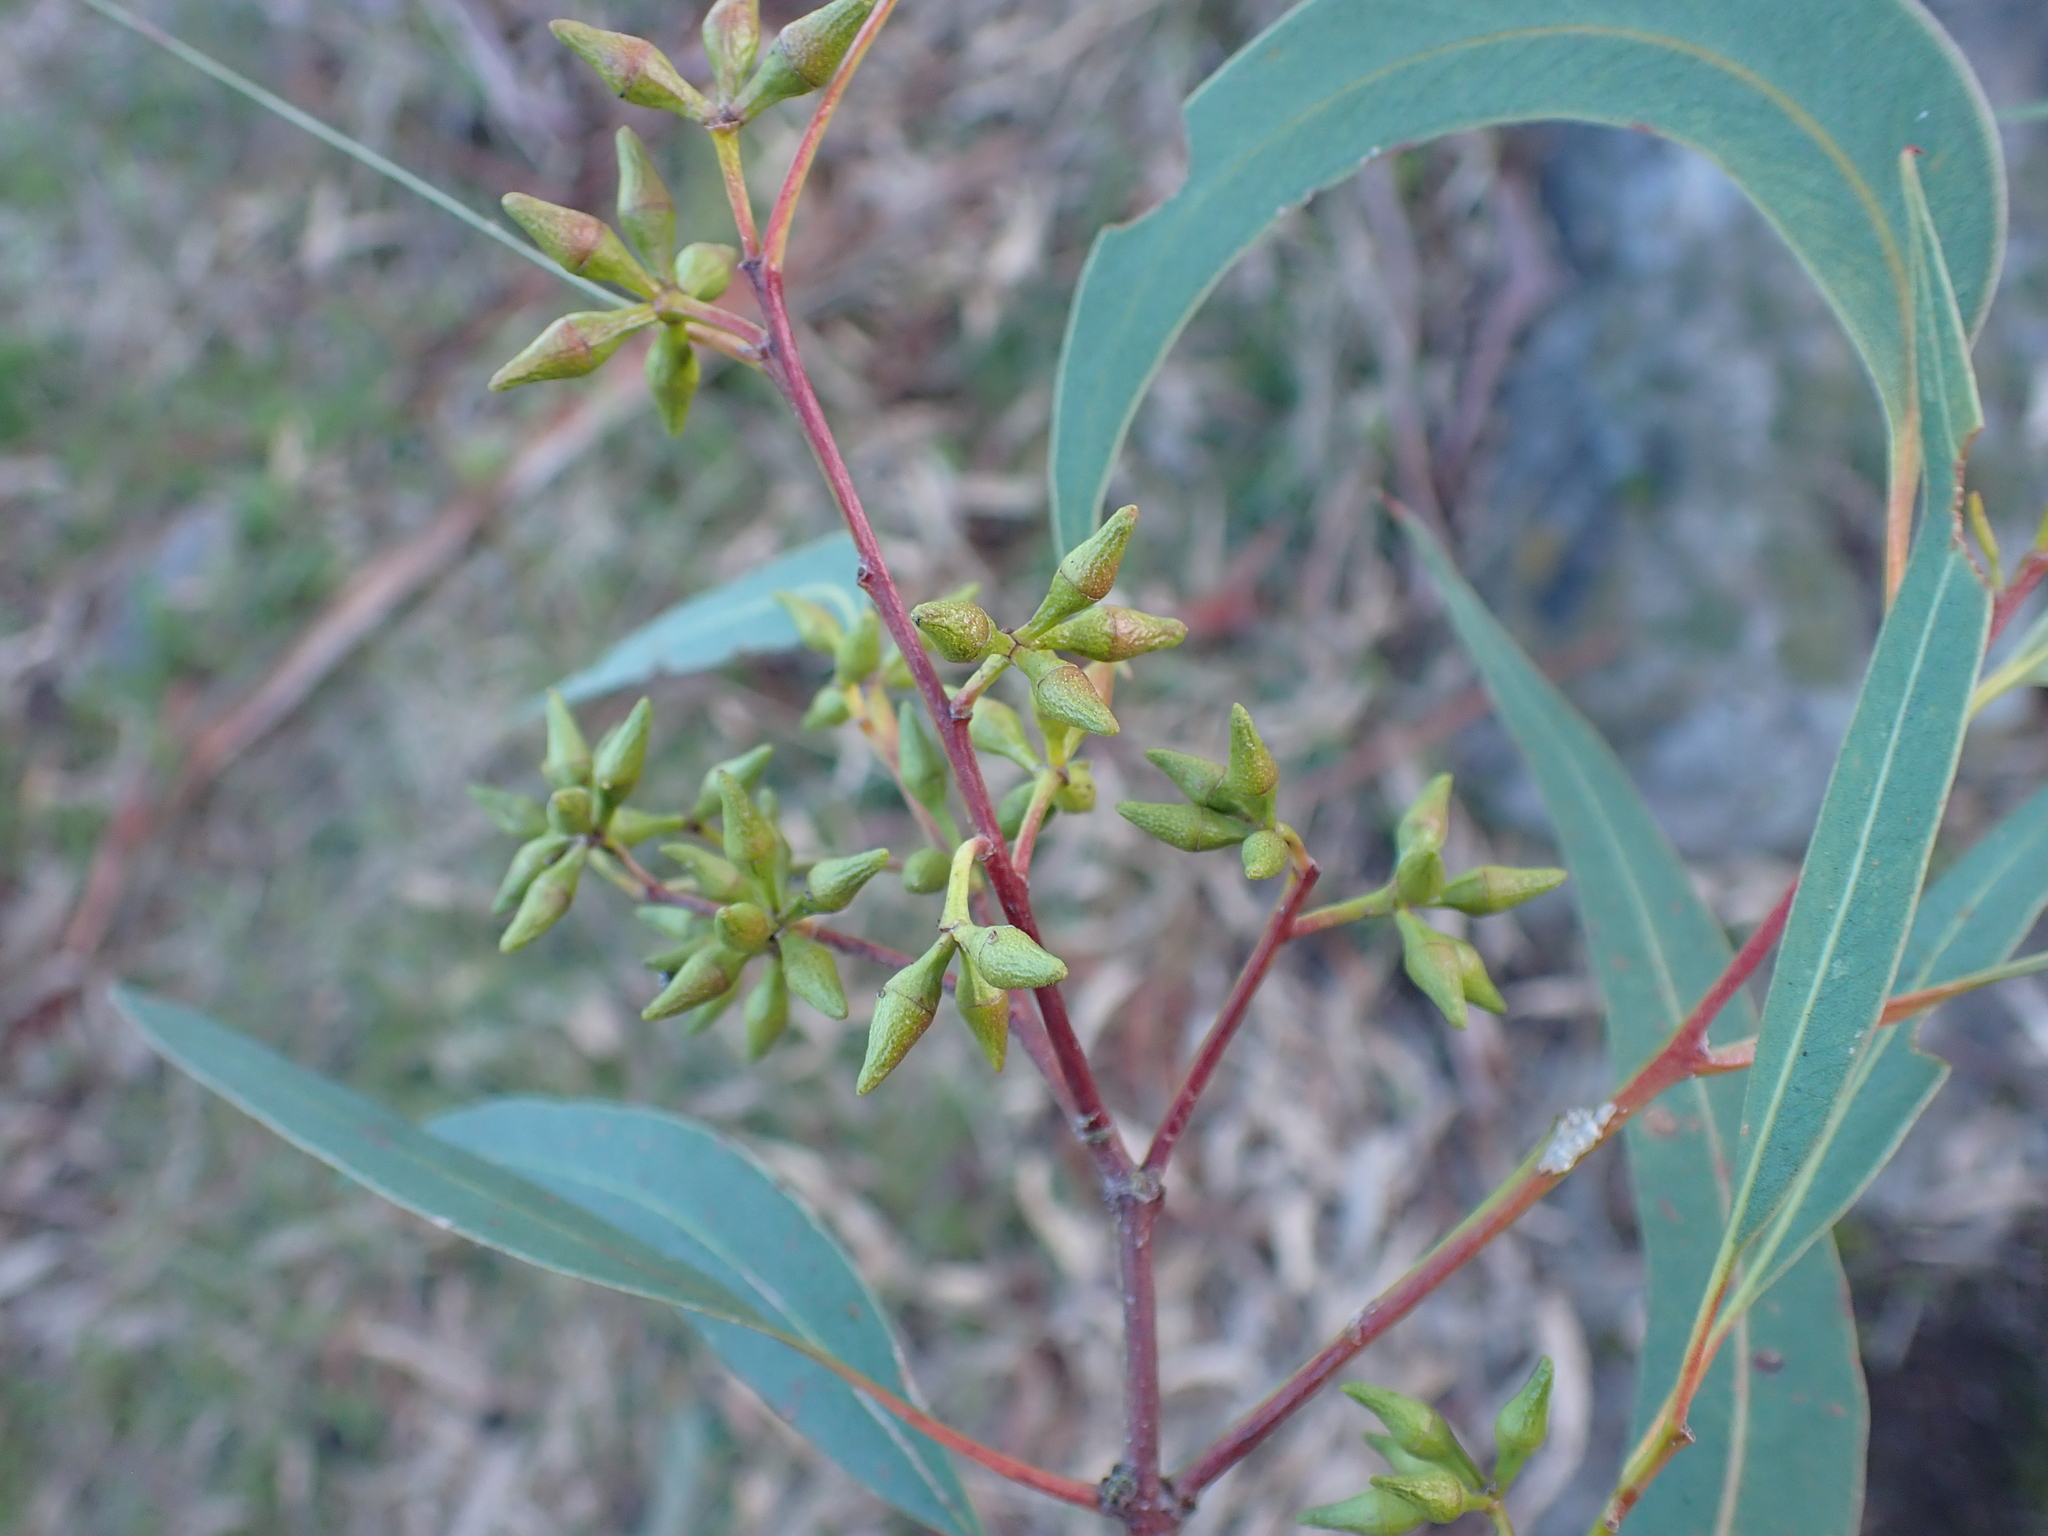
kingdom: Plantae
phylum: Tracheophyta
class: Magnoliopsida
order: Myrtales
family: Myrtaceae
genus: Eucalyptus
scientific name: Eucalyptus blakelyi
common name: Blakely's-red-gum
